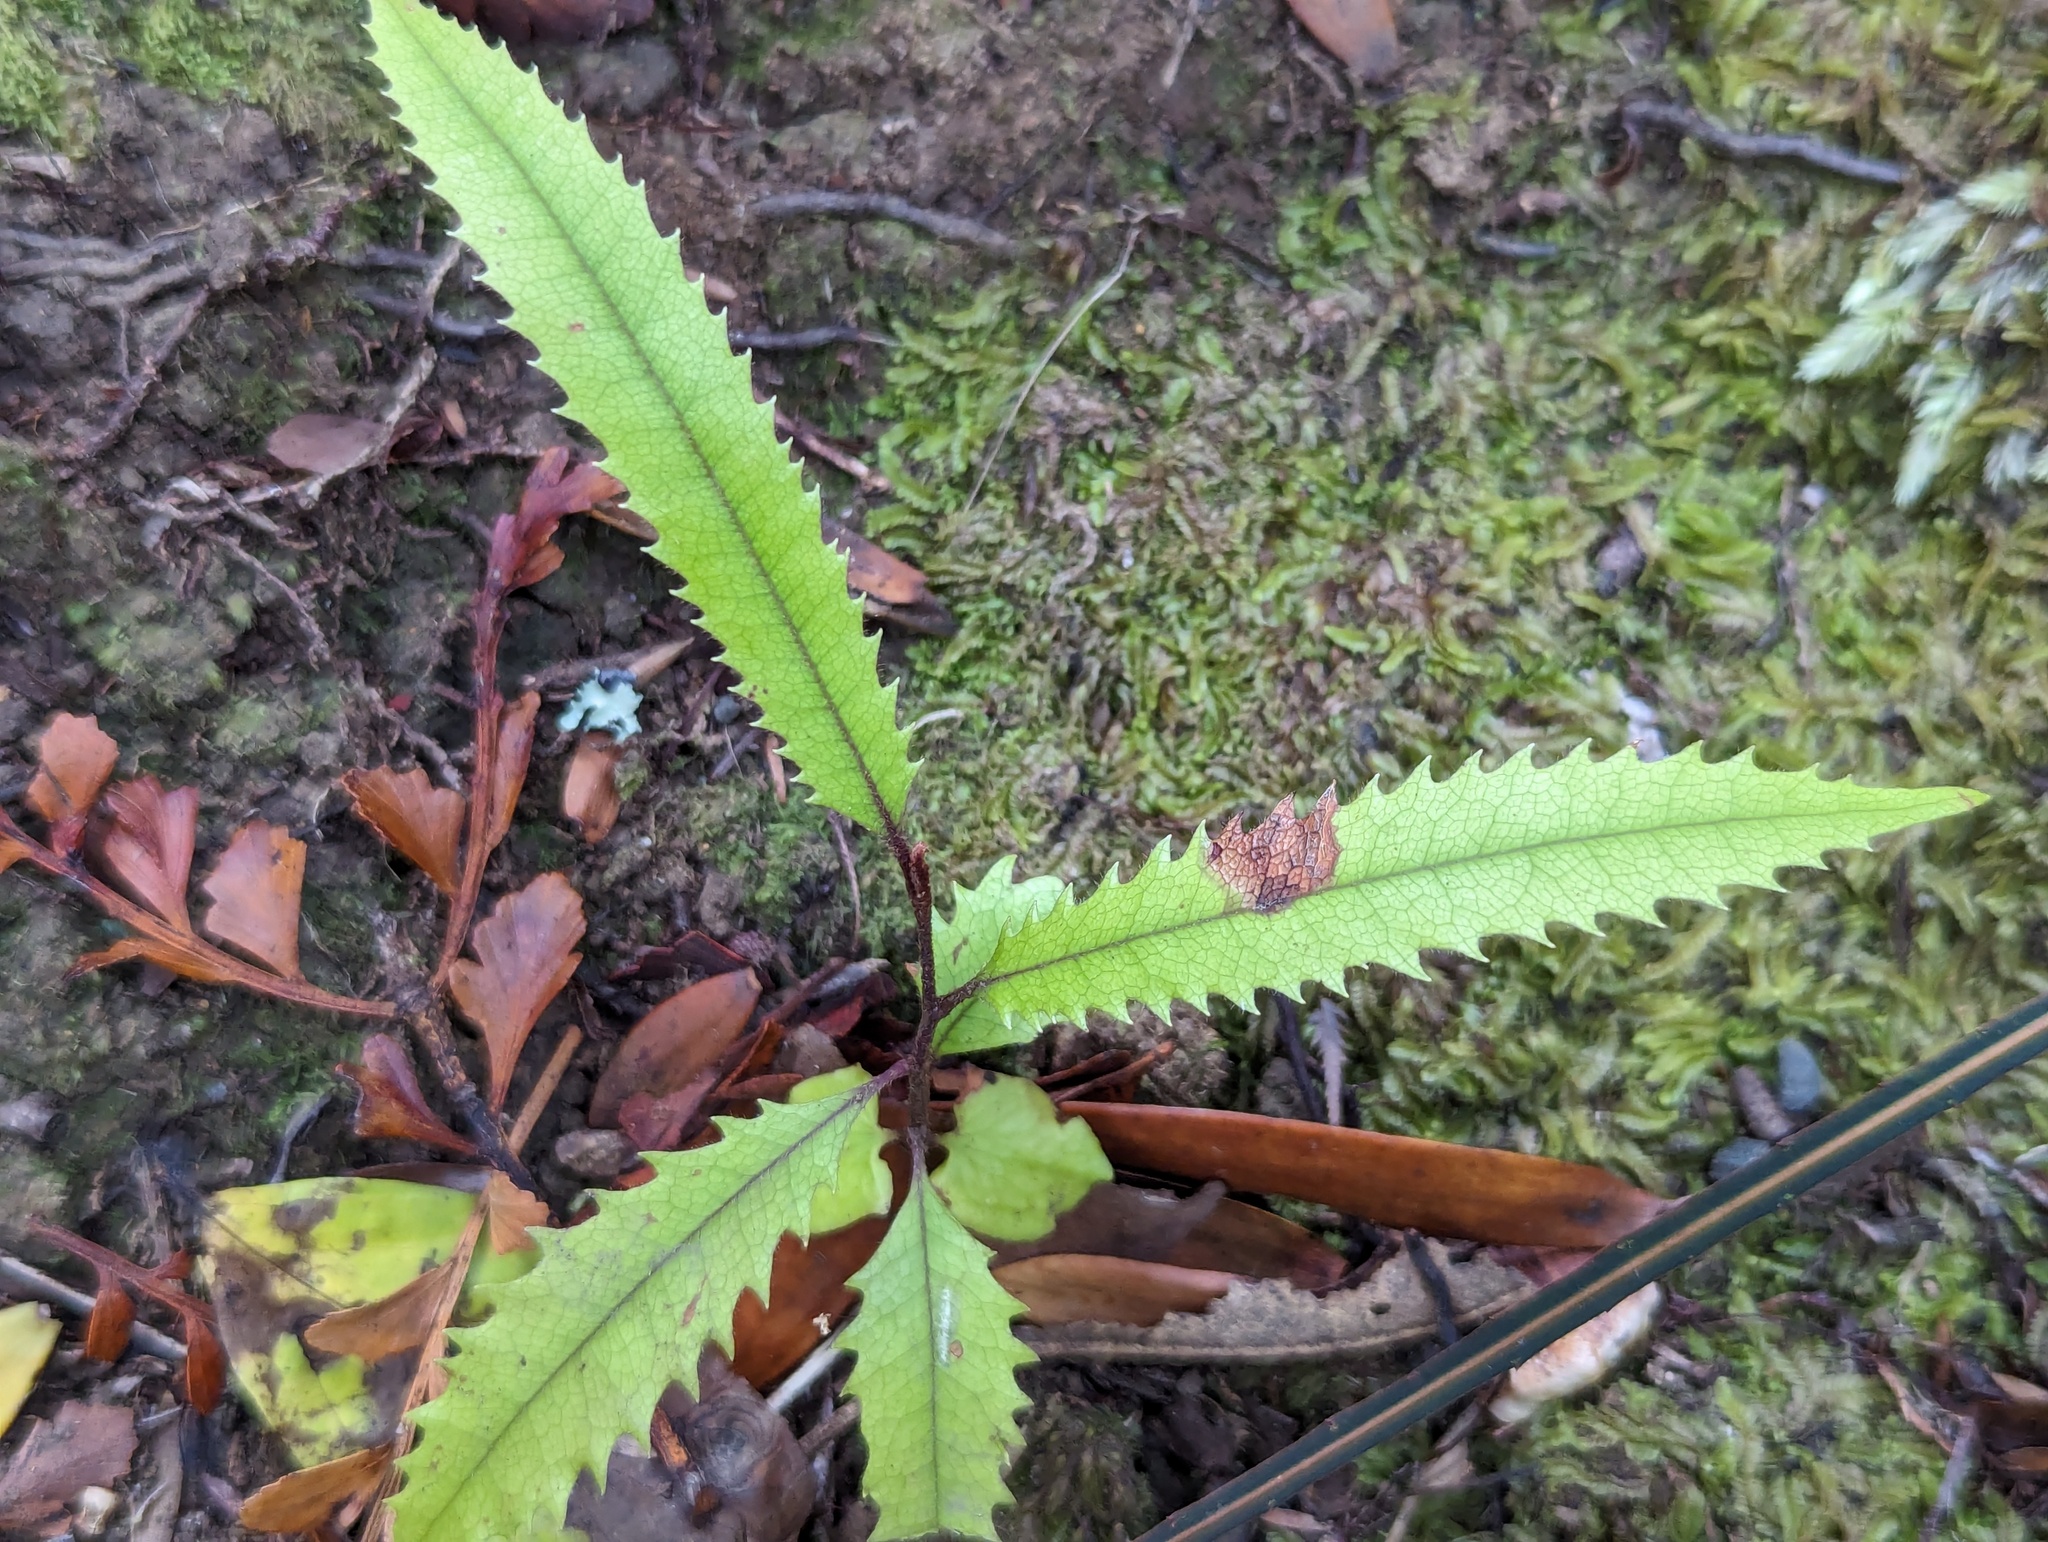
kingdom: Plantae
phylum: Tracheophyta
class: Magnoliopsida
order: Proteales
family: Proteaceae
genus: Knightia
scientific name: Knightia excelsa
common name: New zealand-honeysuckle
